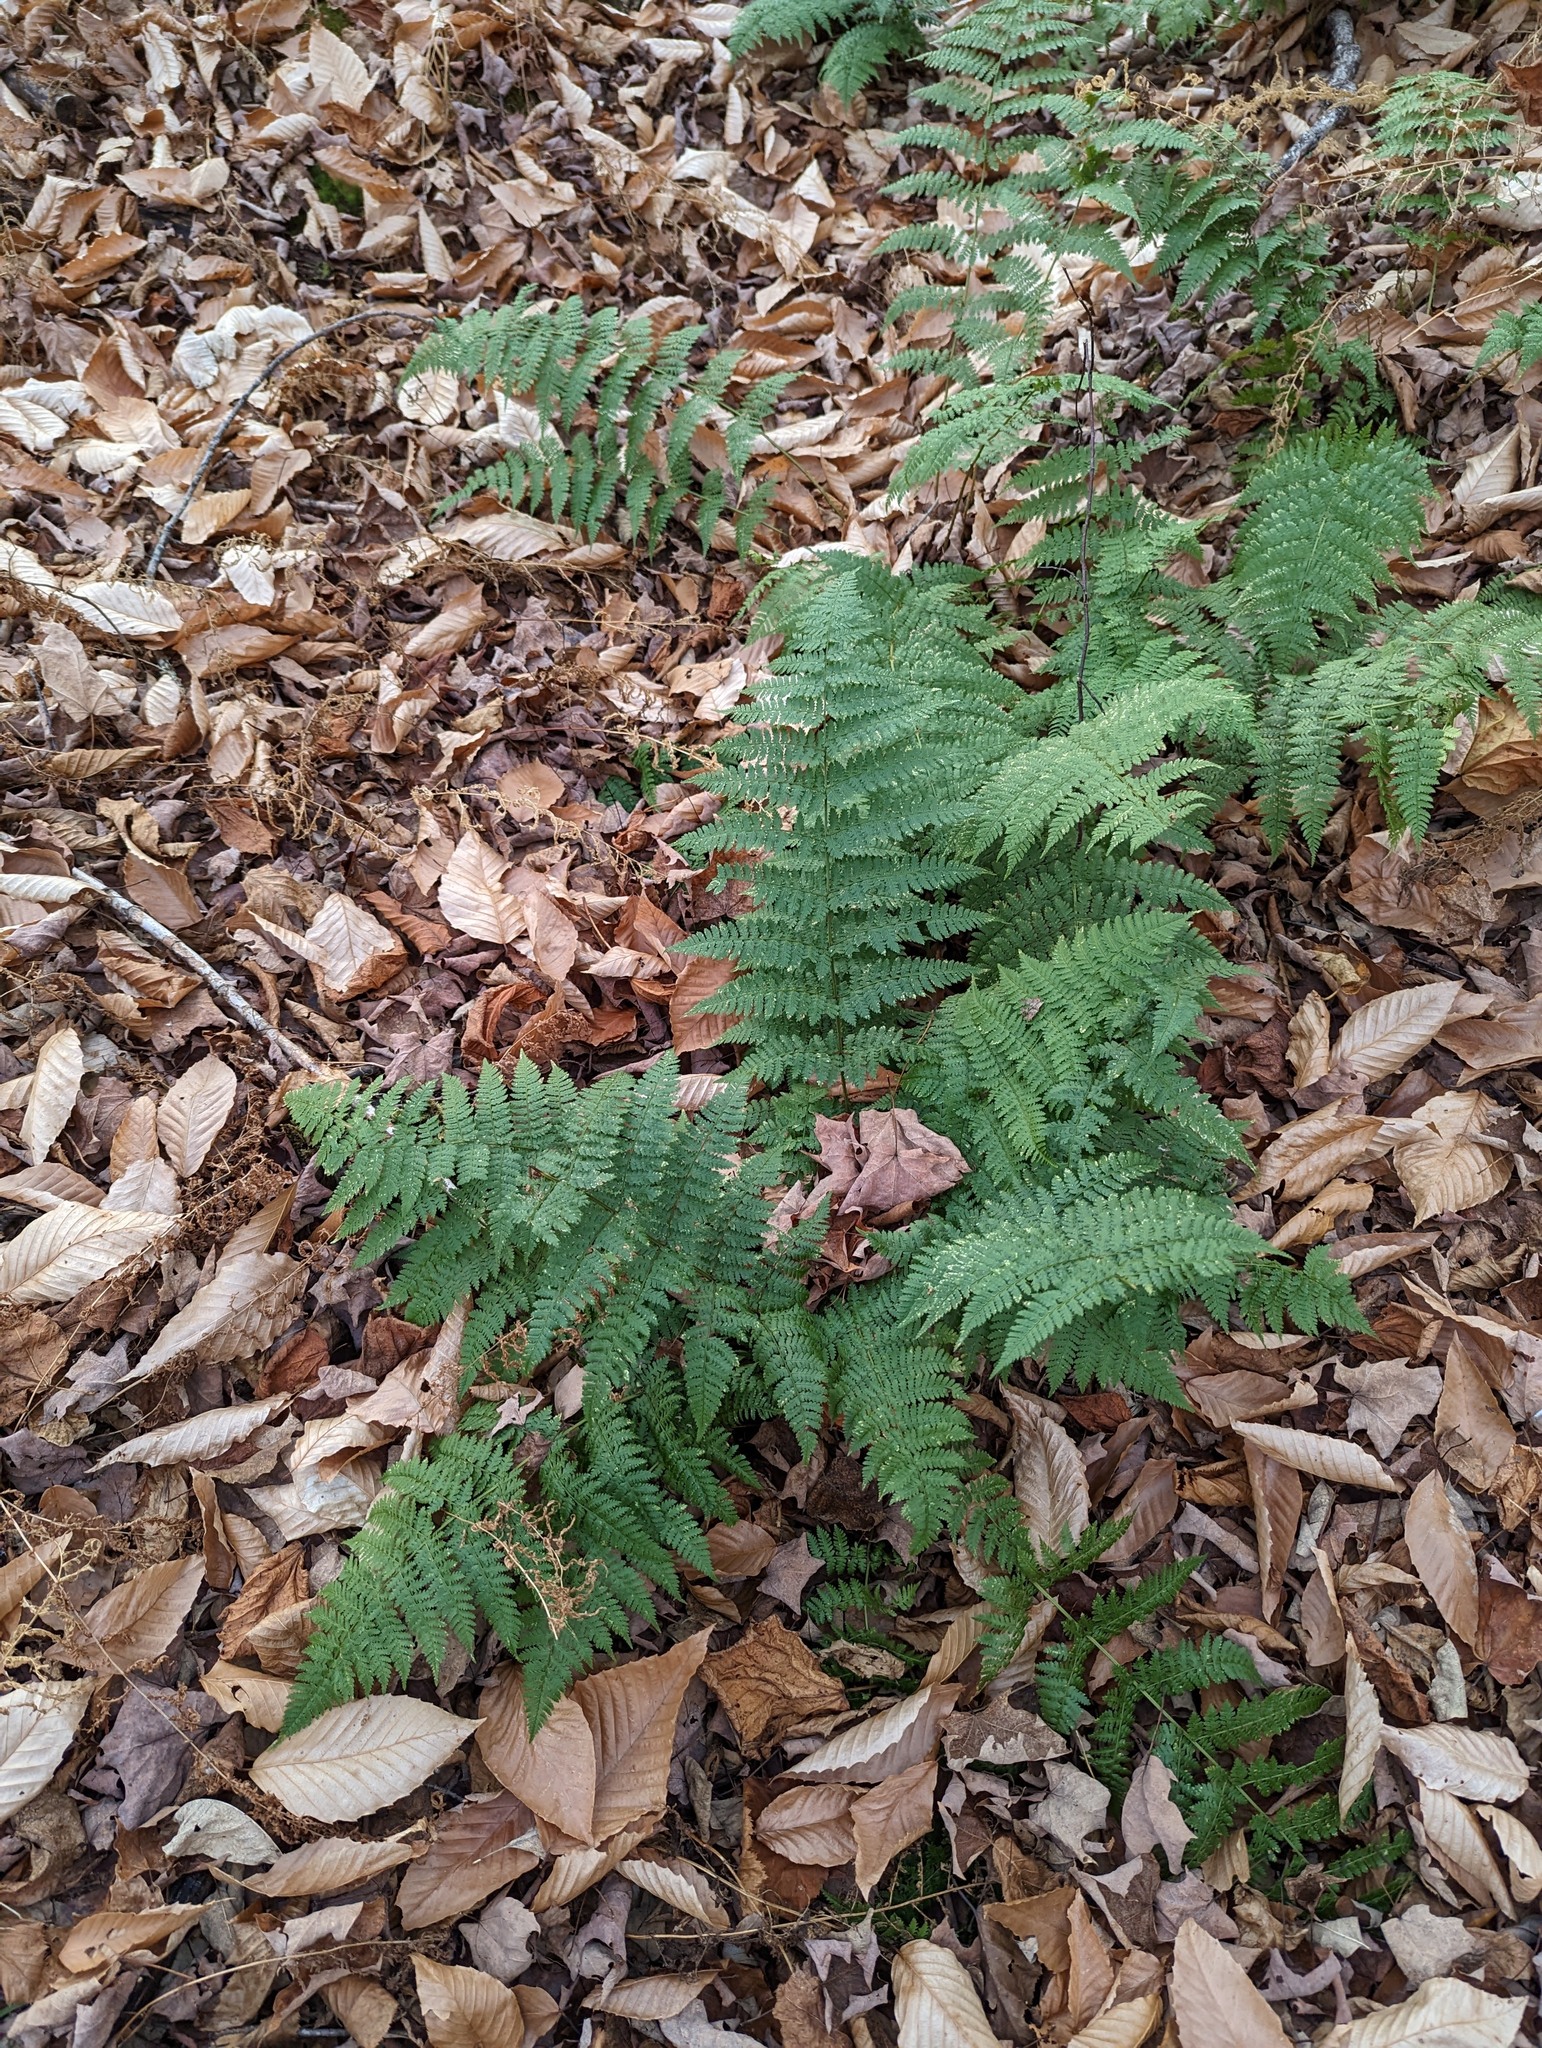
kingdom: Plantae
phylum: Tracheophyta
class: Polypodiopsida
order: Polypodiales
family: Dryopteridaceae
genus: Dryopteris
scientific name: Dryopteris intermedia
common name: Evergreen wood fern
